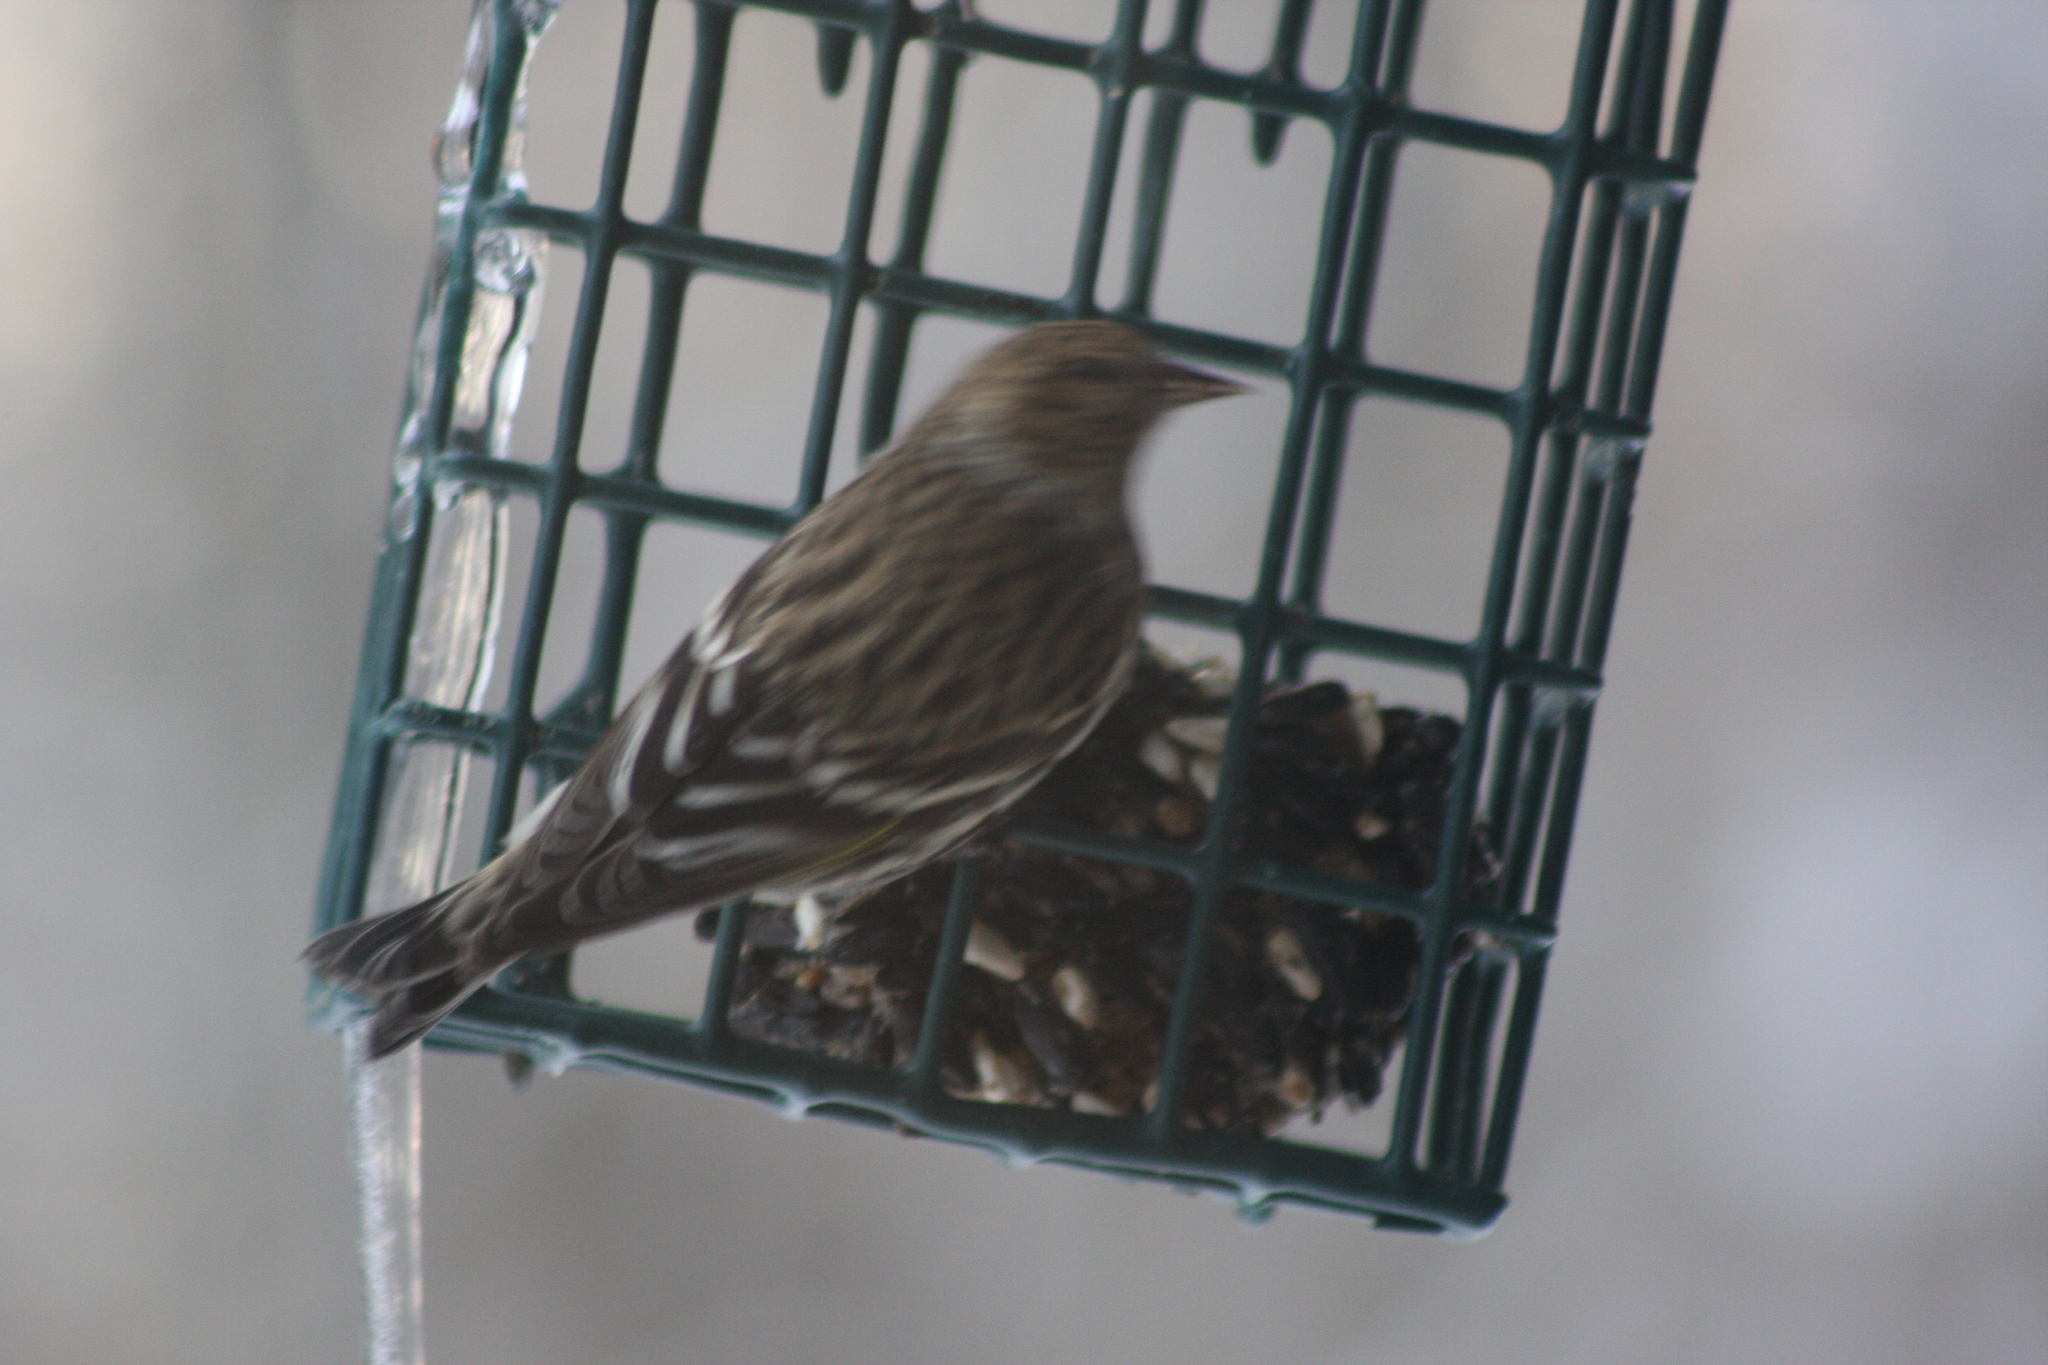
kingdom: Animalia
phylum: Chordata
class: Aves
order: Passeriformes
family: Fringillidae
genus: Spinus
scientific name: Spinus pinus
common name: Pine siskin
